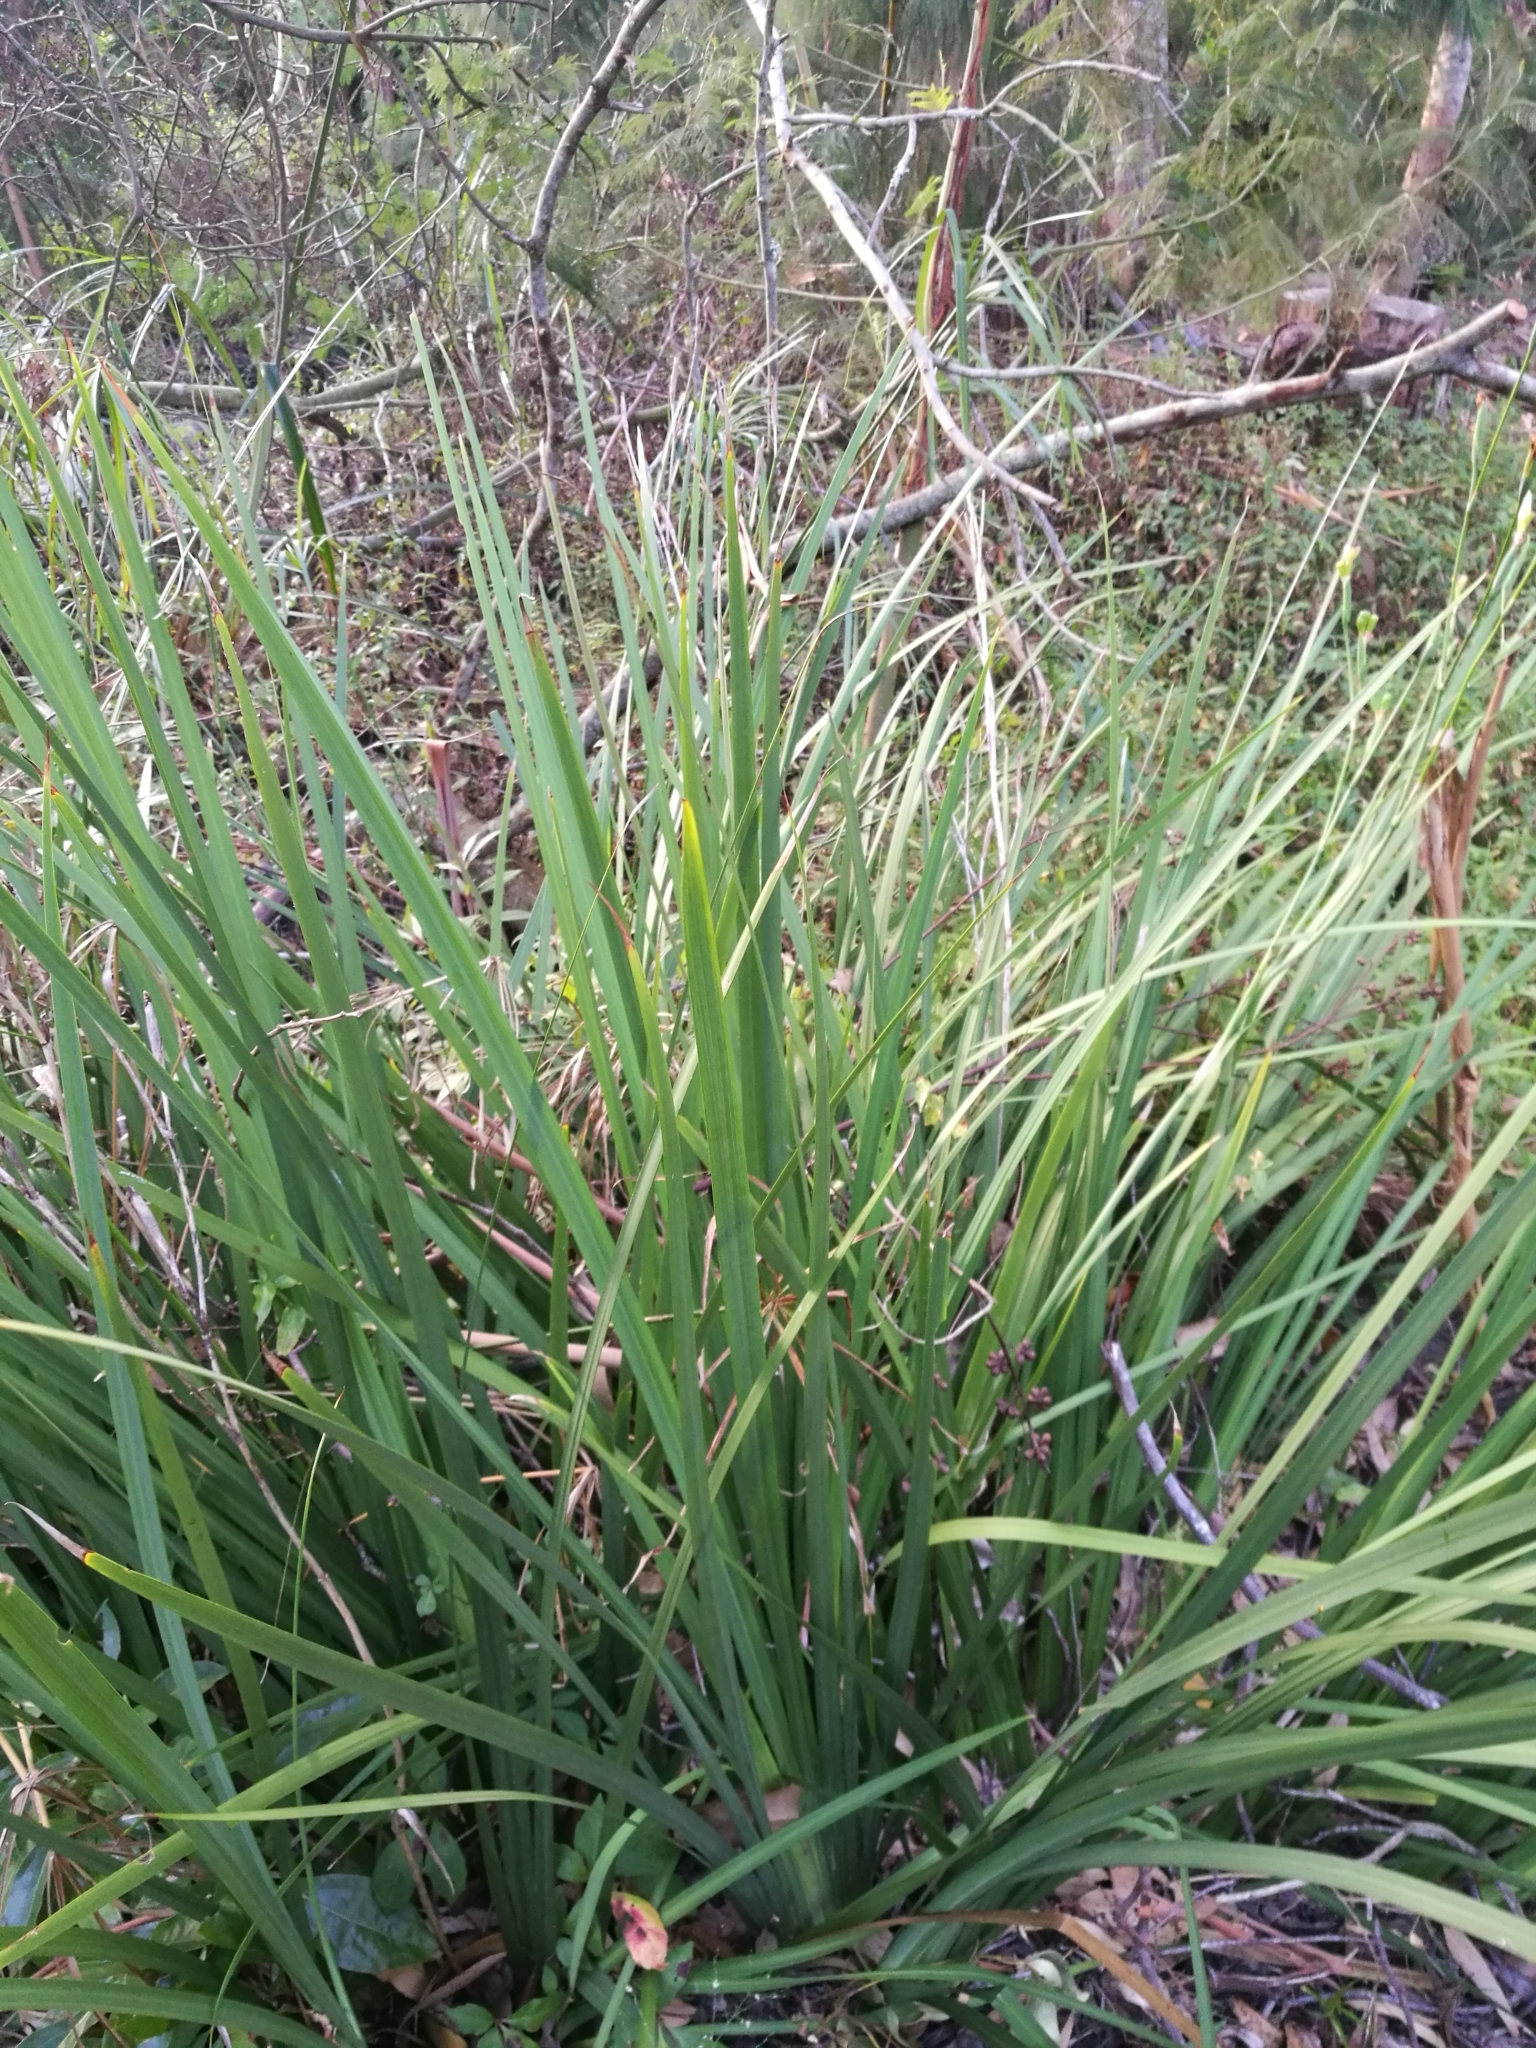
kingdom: Plantae
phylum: Tracheophyta
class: Liliopsida
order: Asparagales
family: Iridaceae
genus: Dietes
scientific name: Dietes bicolor
